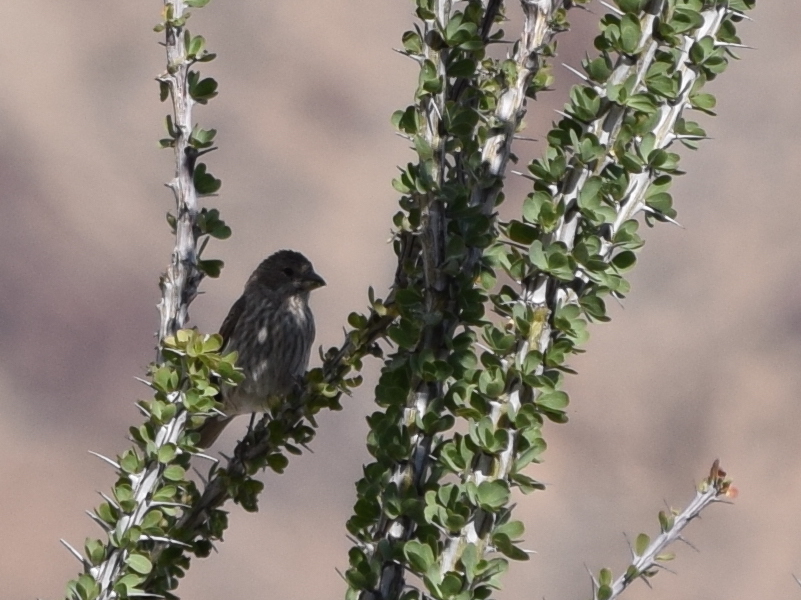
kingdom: Animalia
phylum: Chordata
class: Aves
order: Passeriformes
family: Fringillidae
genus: Haemorhous
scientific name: Haemorhous mexicanus
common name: House finch
